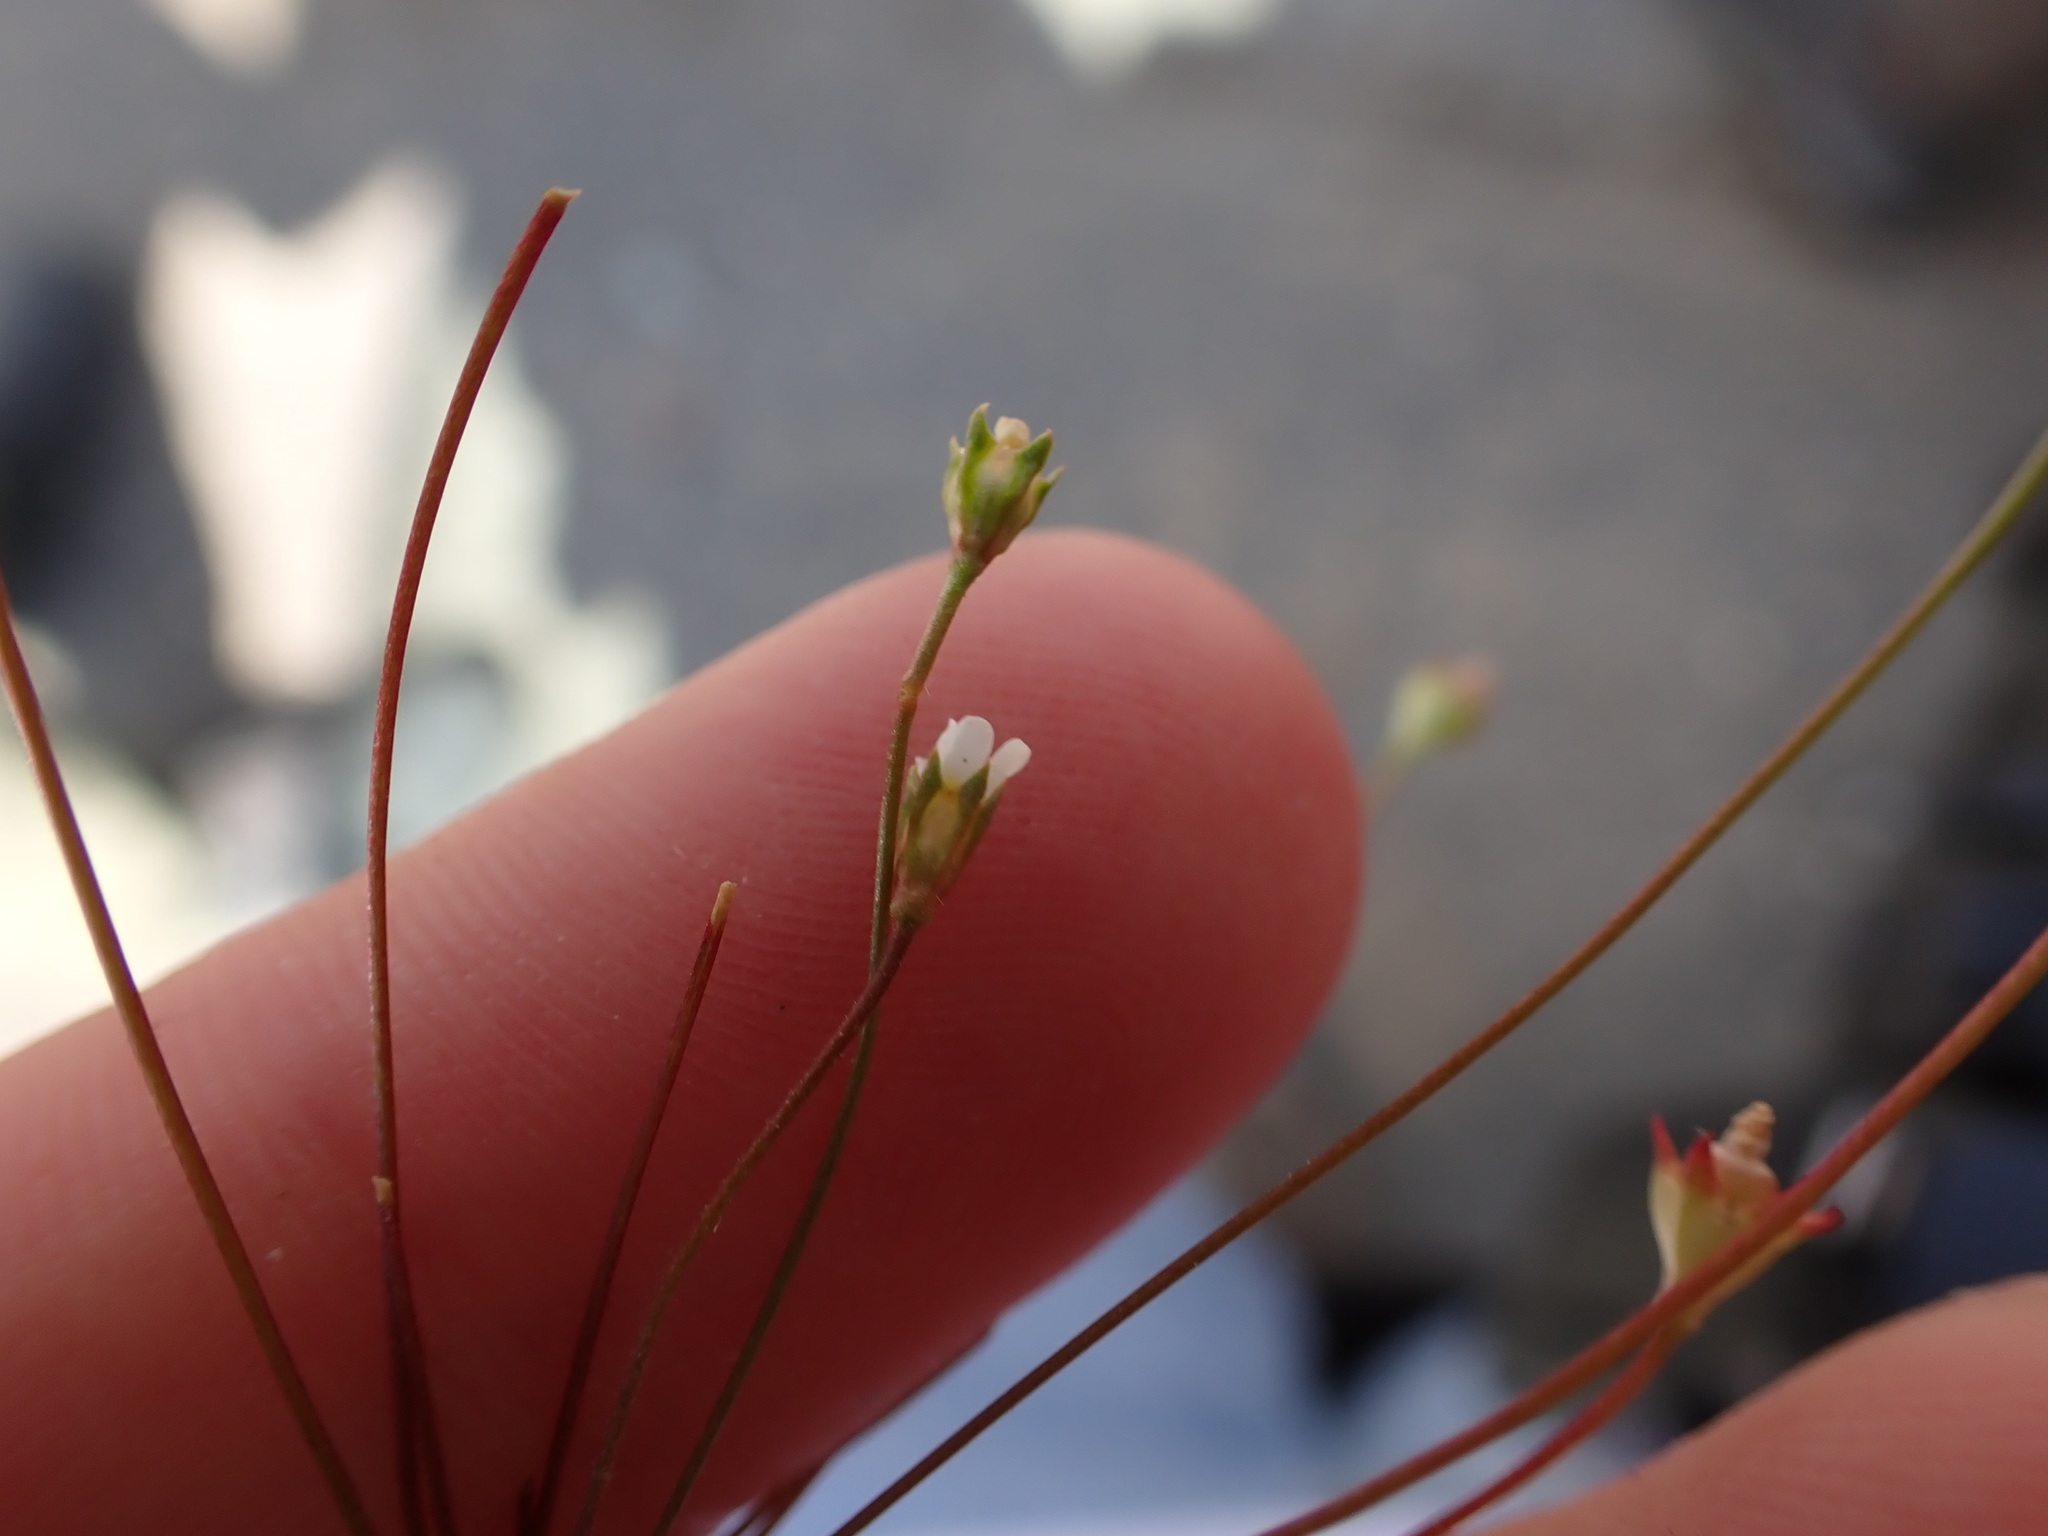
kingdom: Plantae
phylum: Tracheophyta
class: Magnoliopsida
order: Ericales
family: Primulaceae
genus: Androsace
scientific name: Androsace septentrionalis
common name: Hairy northern fairy-candelabra
